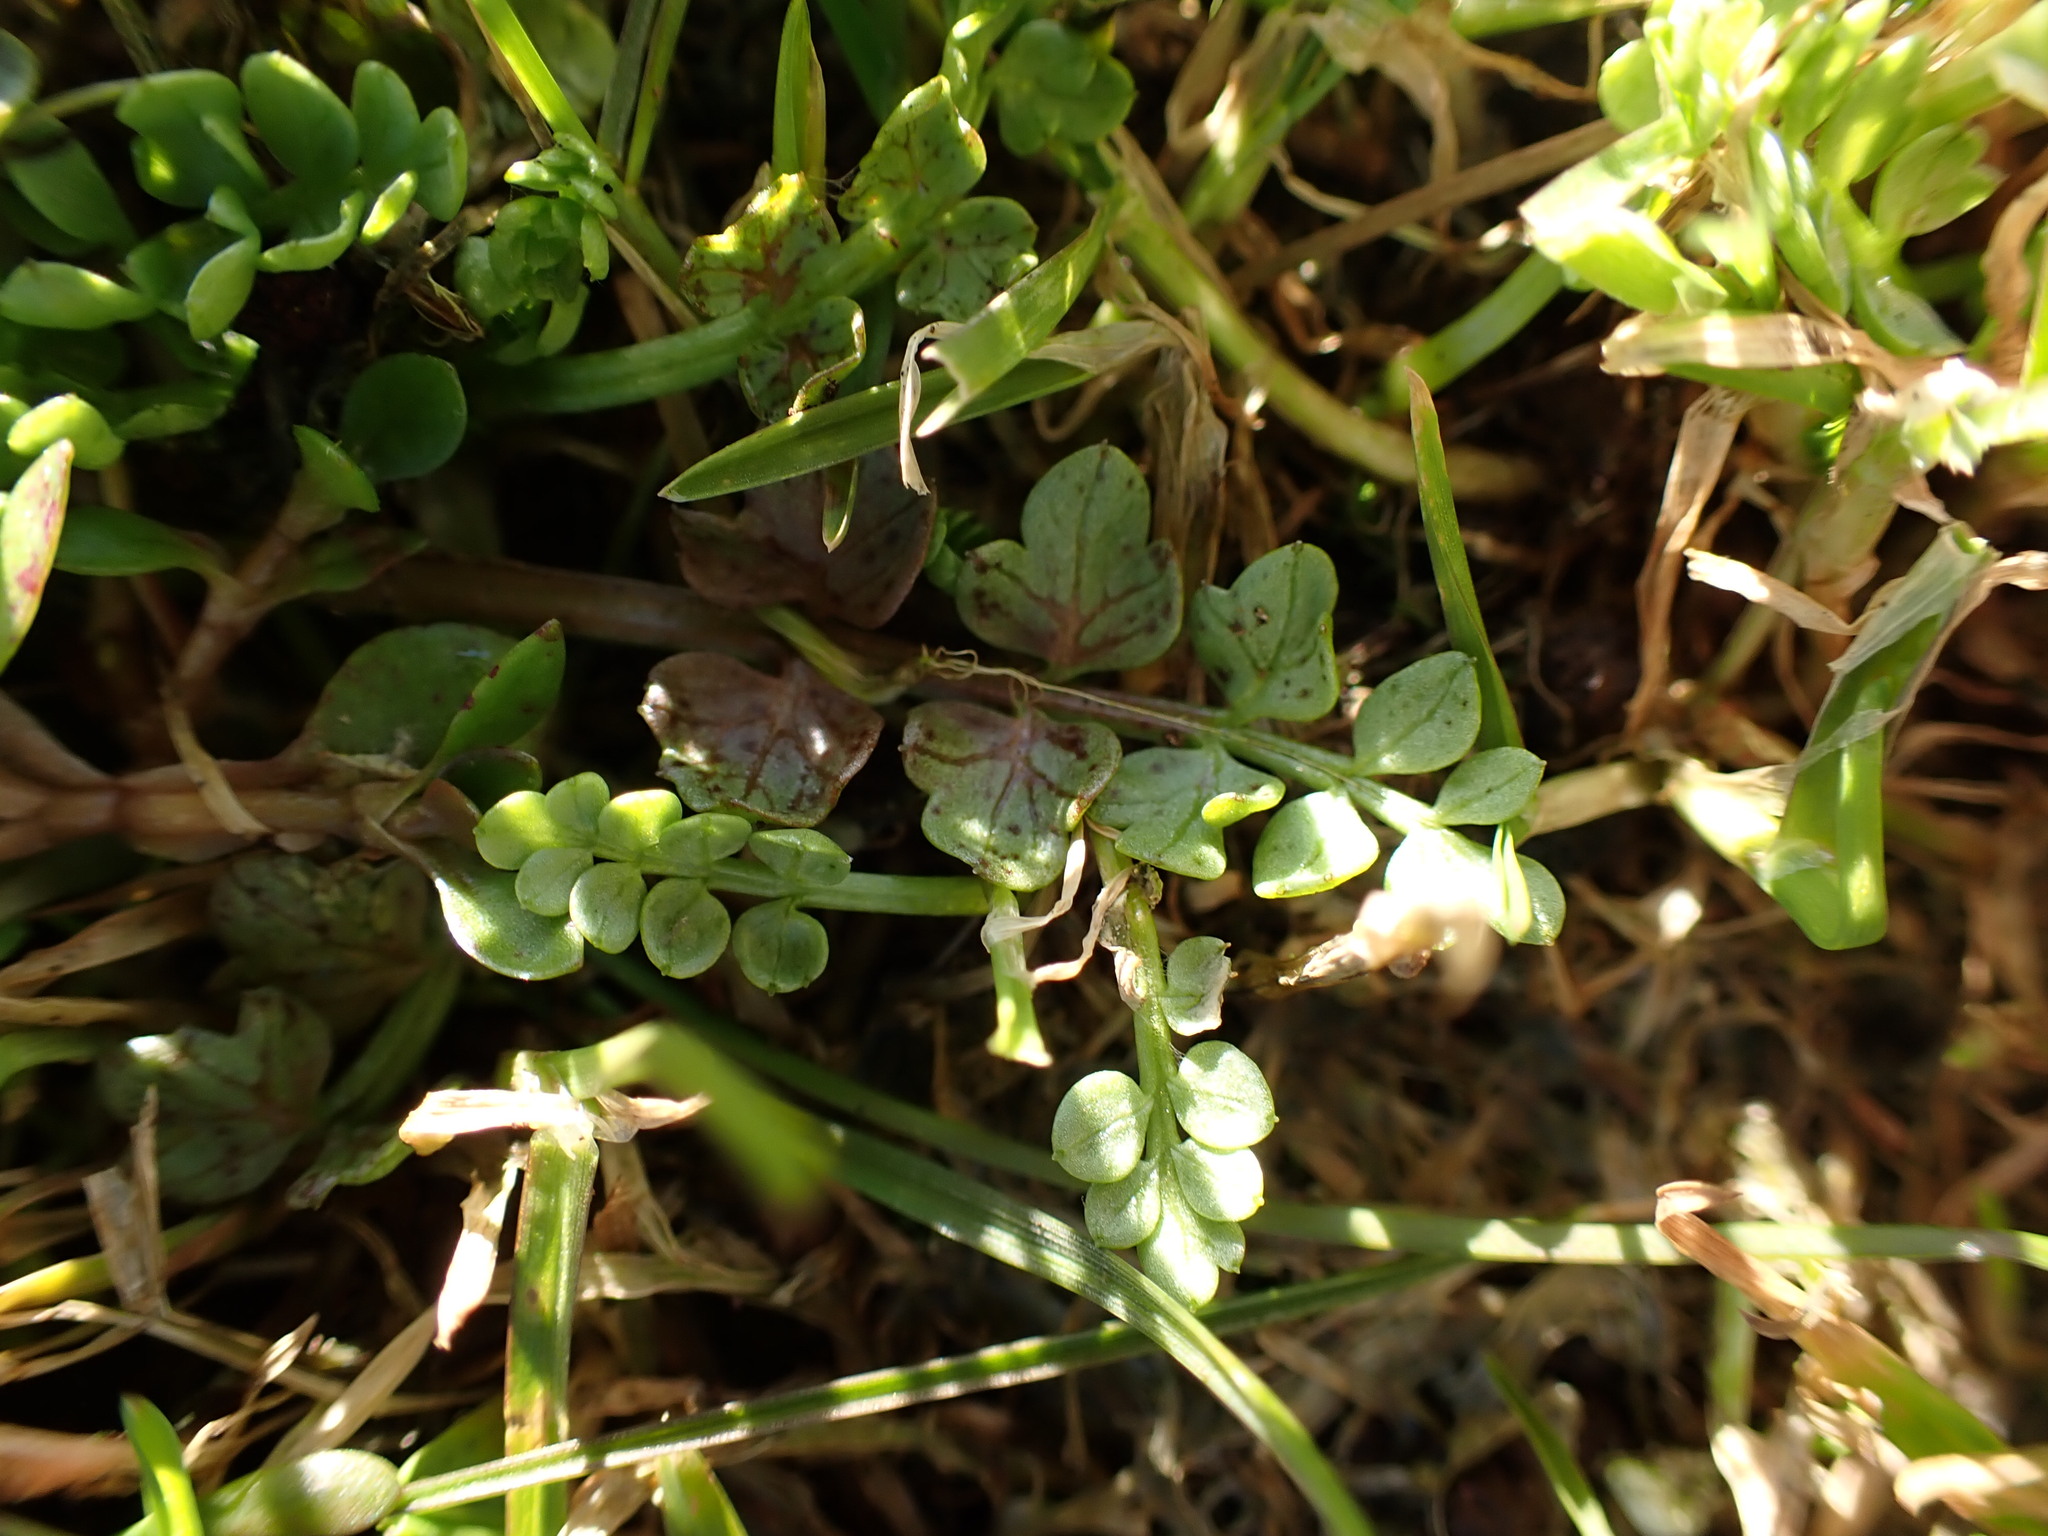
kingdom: Plantae
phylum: Tracheophyta
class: Magnoliopsida
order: Brassicales
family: Limnanthaceae
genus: Limnanthes
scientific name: Limnanthes macounii
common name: Macoun's meadowfoam
